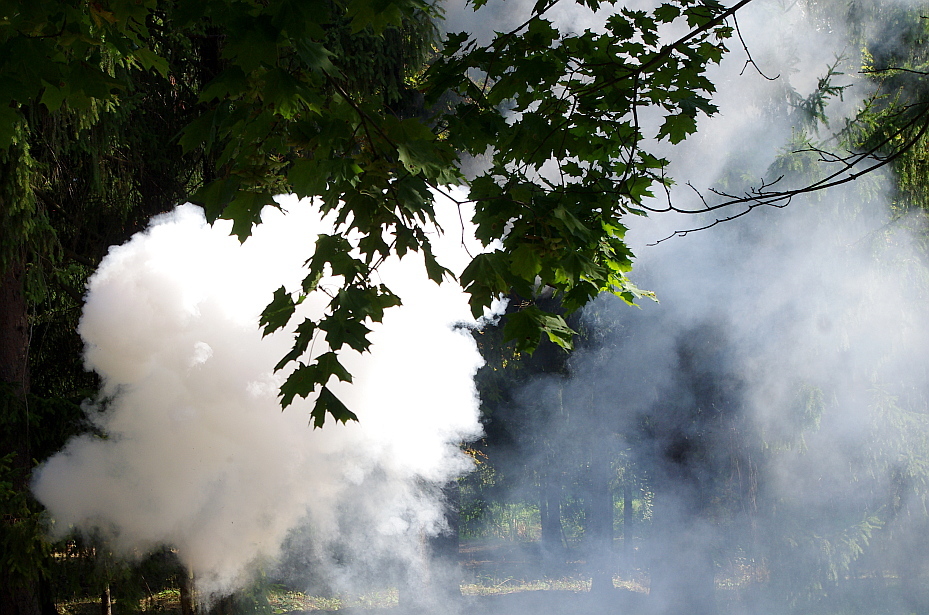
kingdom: Plantae
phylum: Tracheophyta
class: Magnoliopsida
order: Sapindales
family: Sapindaceae
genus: Acer
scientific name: Acer platanoides
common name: Norway maple
